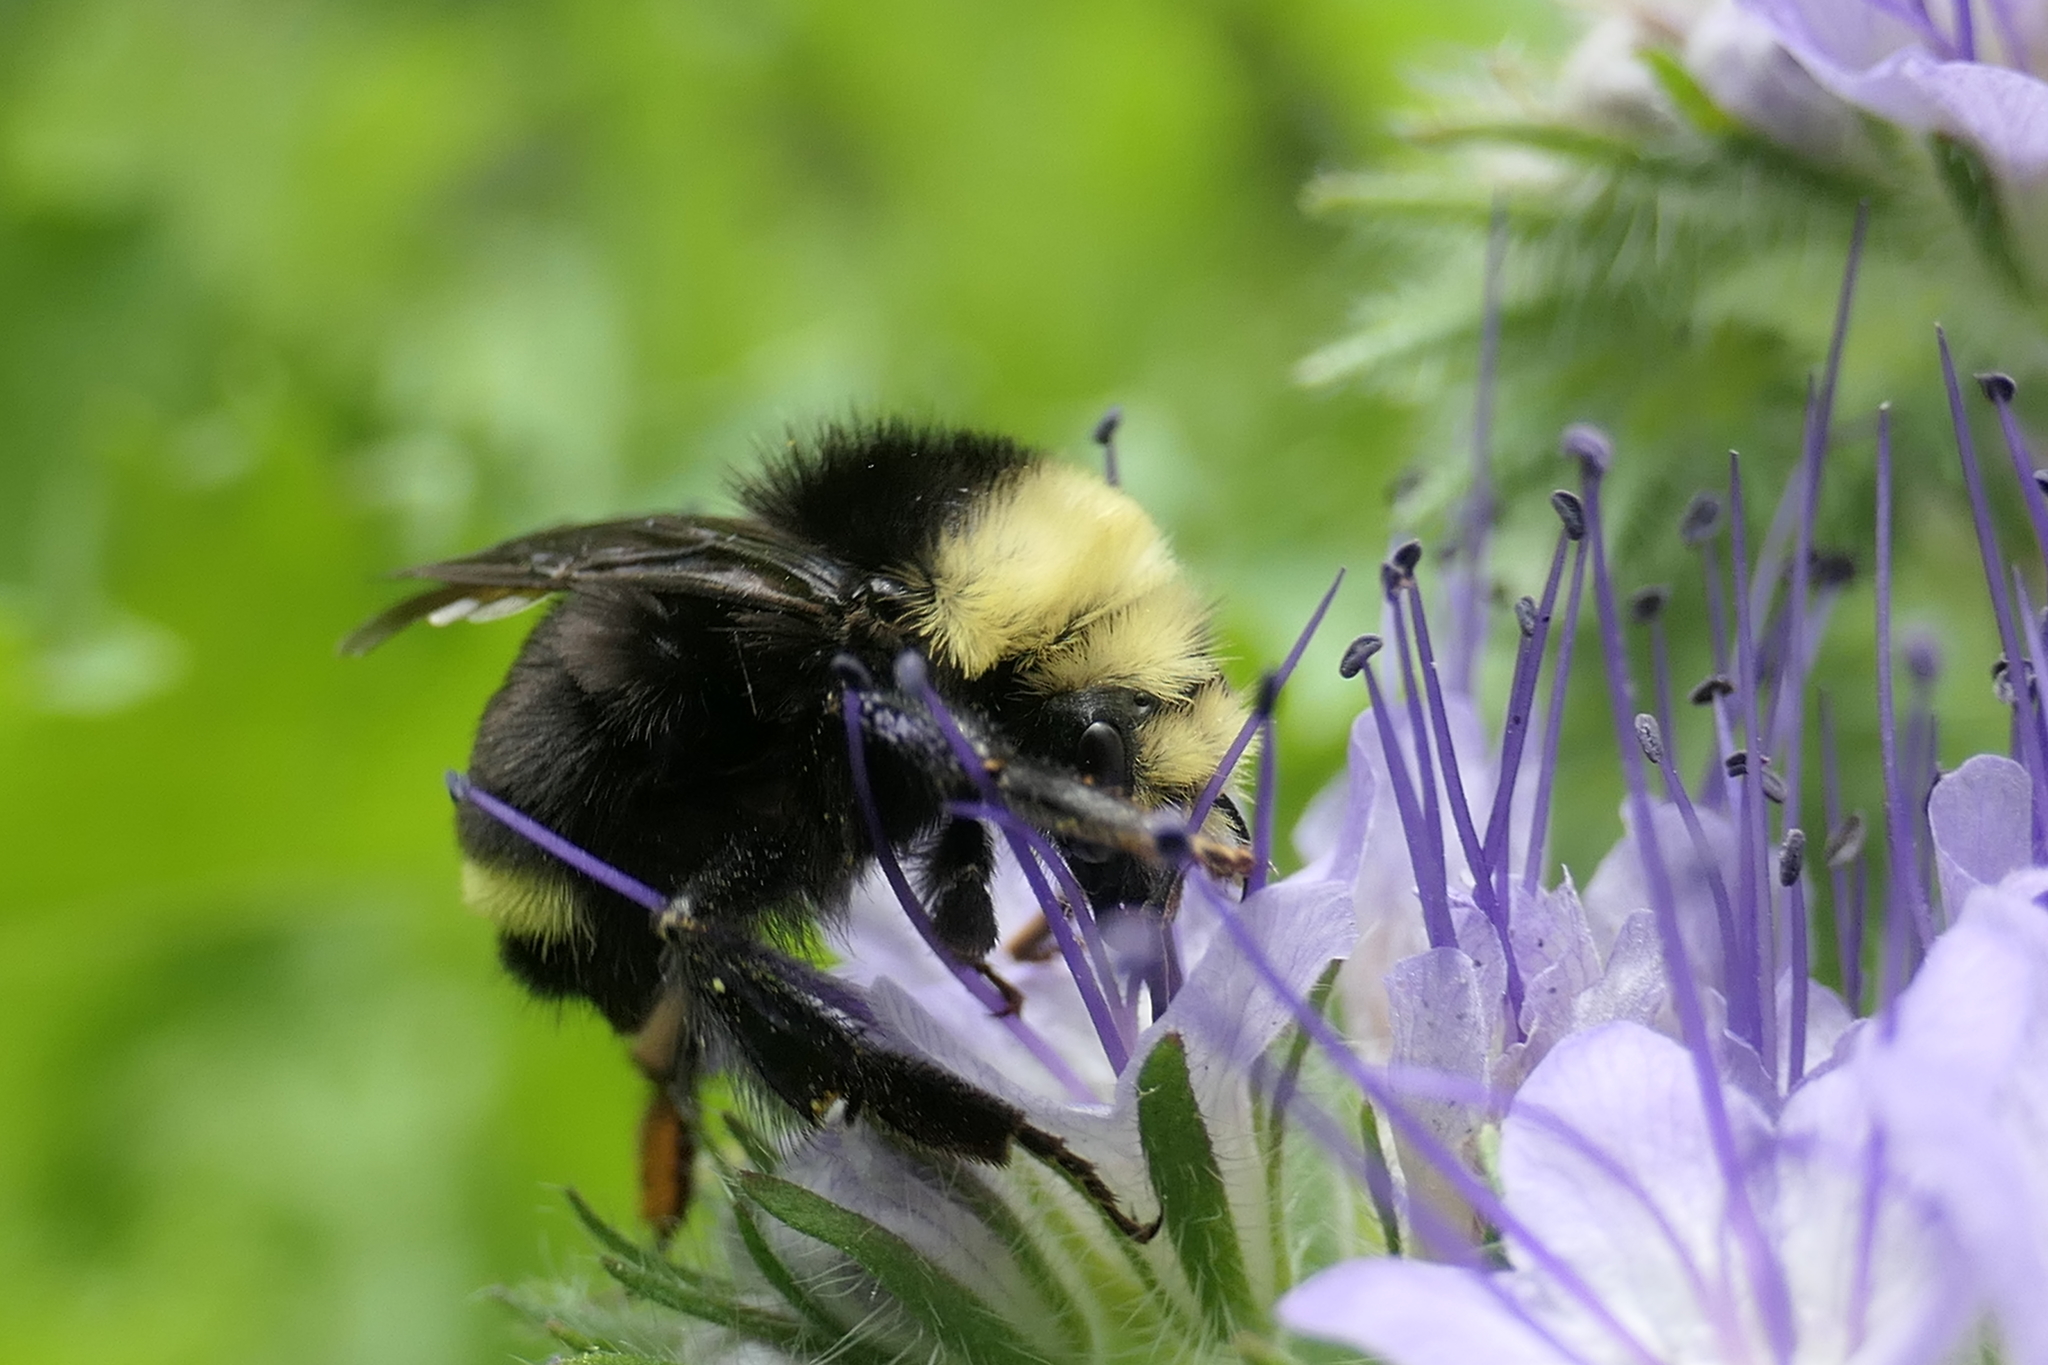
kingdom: Animalia
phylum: Arthropoda
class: Insecta
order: Hymenoptera
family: Apidae
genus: Bombus
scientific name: Bombus vosnesenskii
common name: Vosnesensky bumble bee
